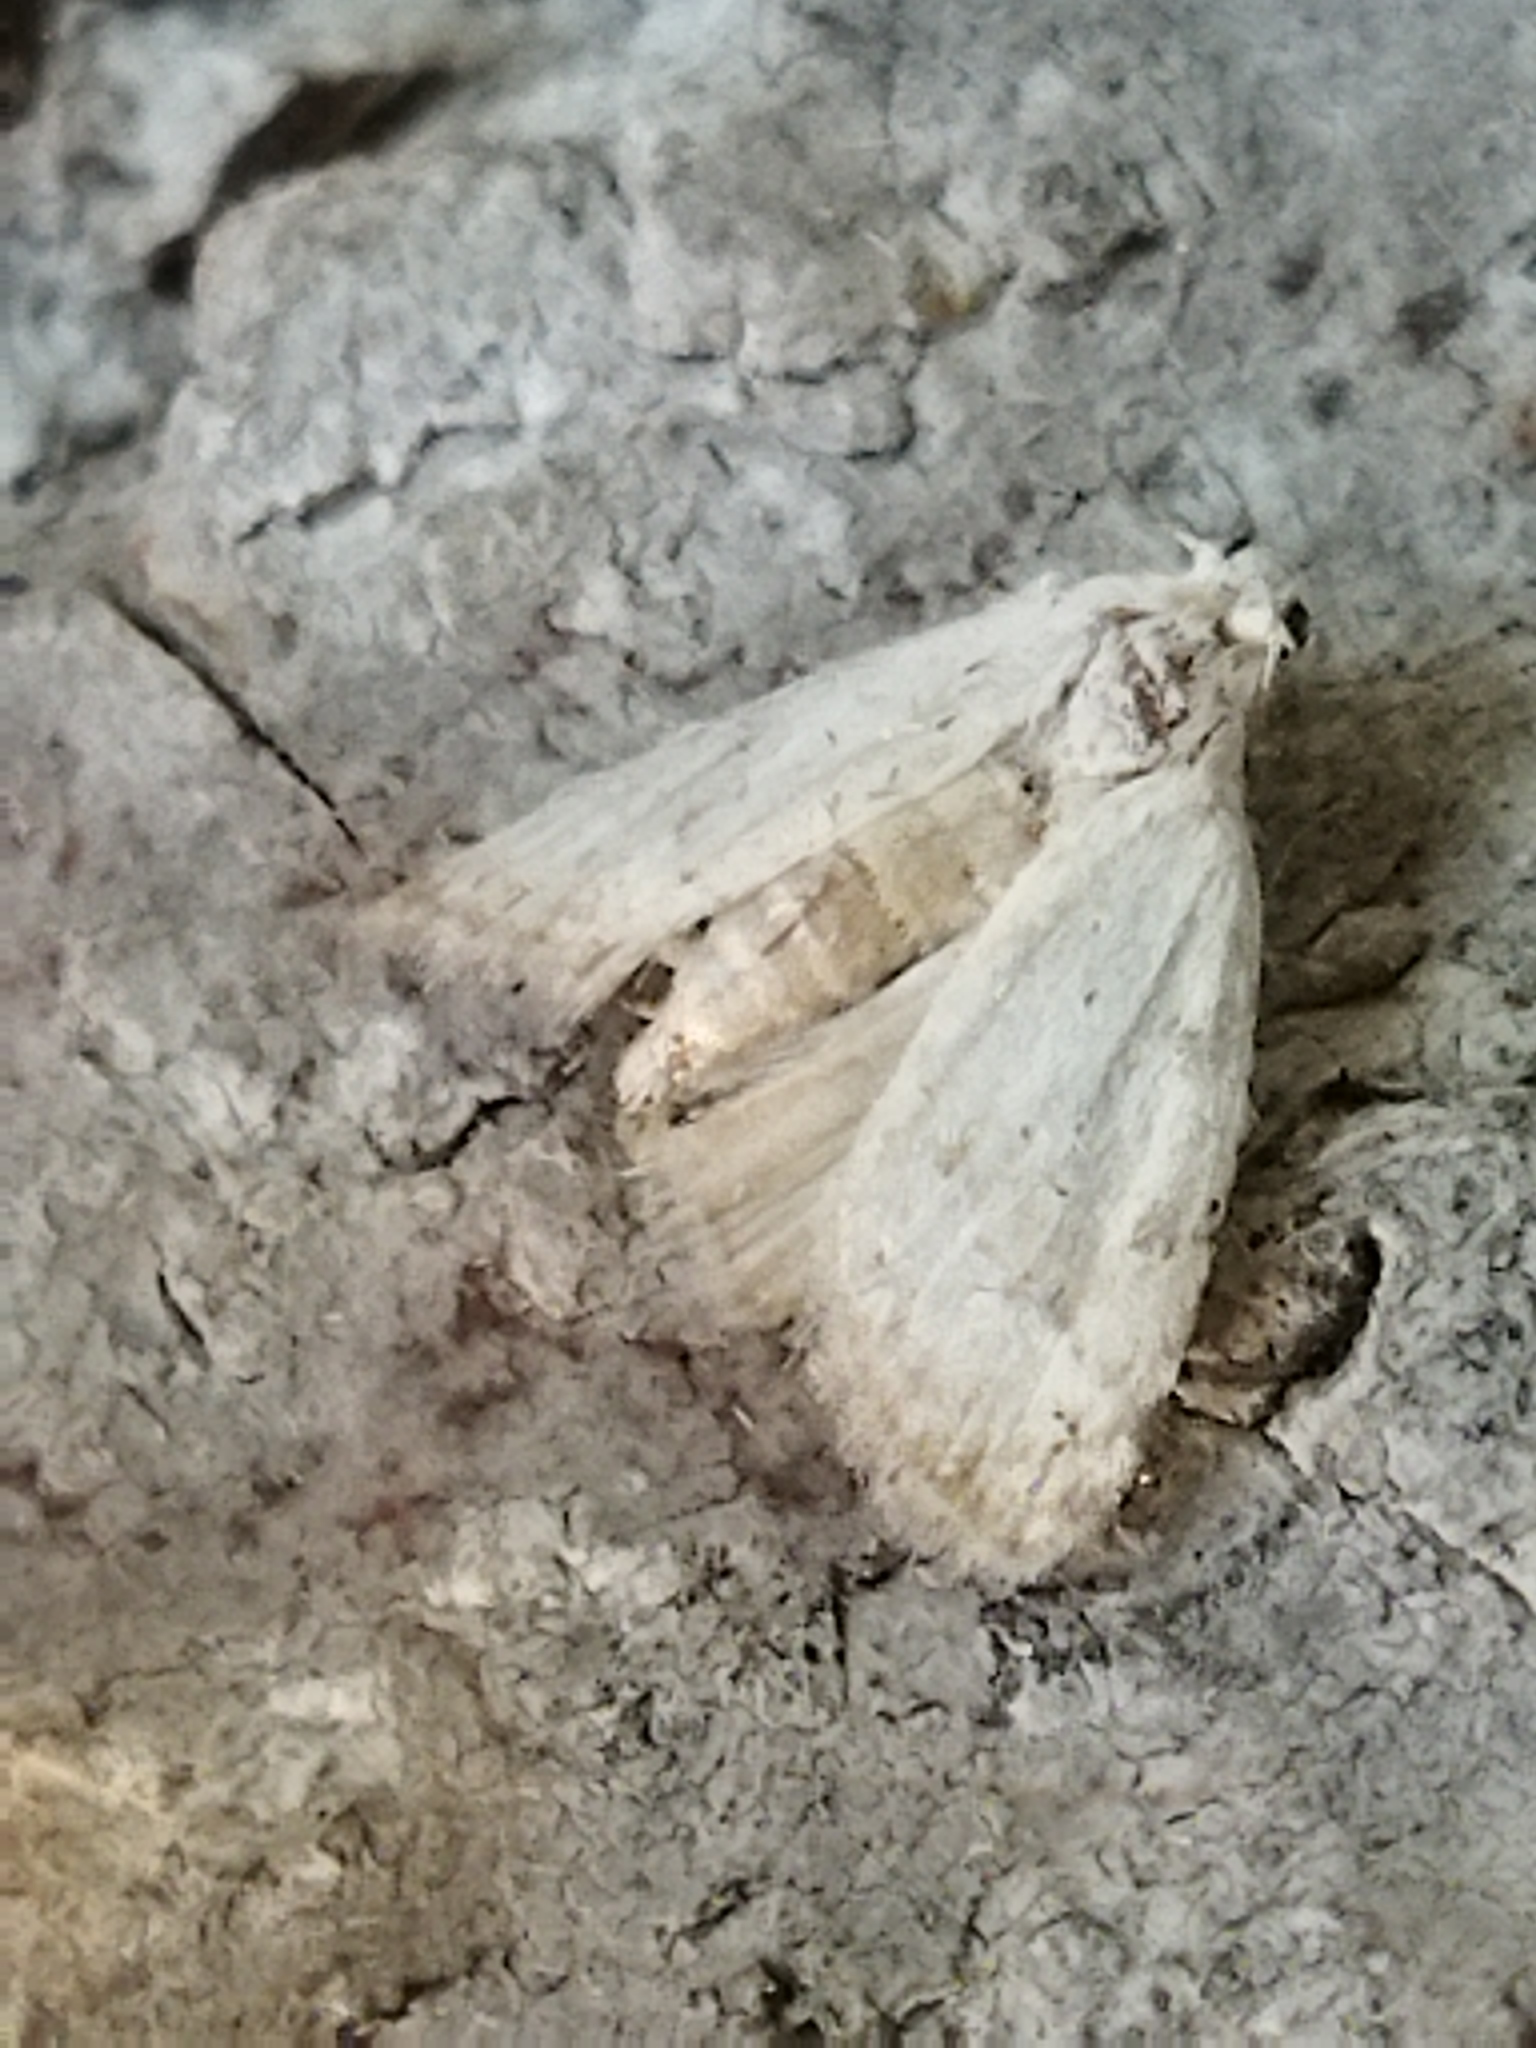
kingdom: Animalia
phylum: Arthropoda
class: Insecta
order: Lepidoptera
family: Nolidae
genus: Nola
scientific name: Nola aerugula
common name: Scarce black arches
